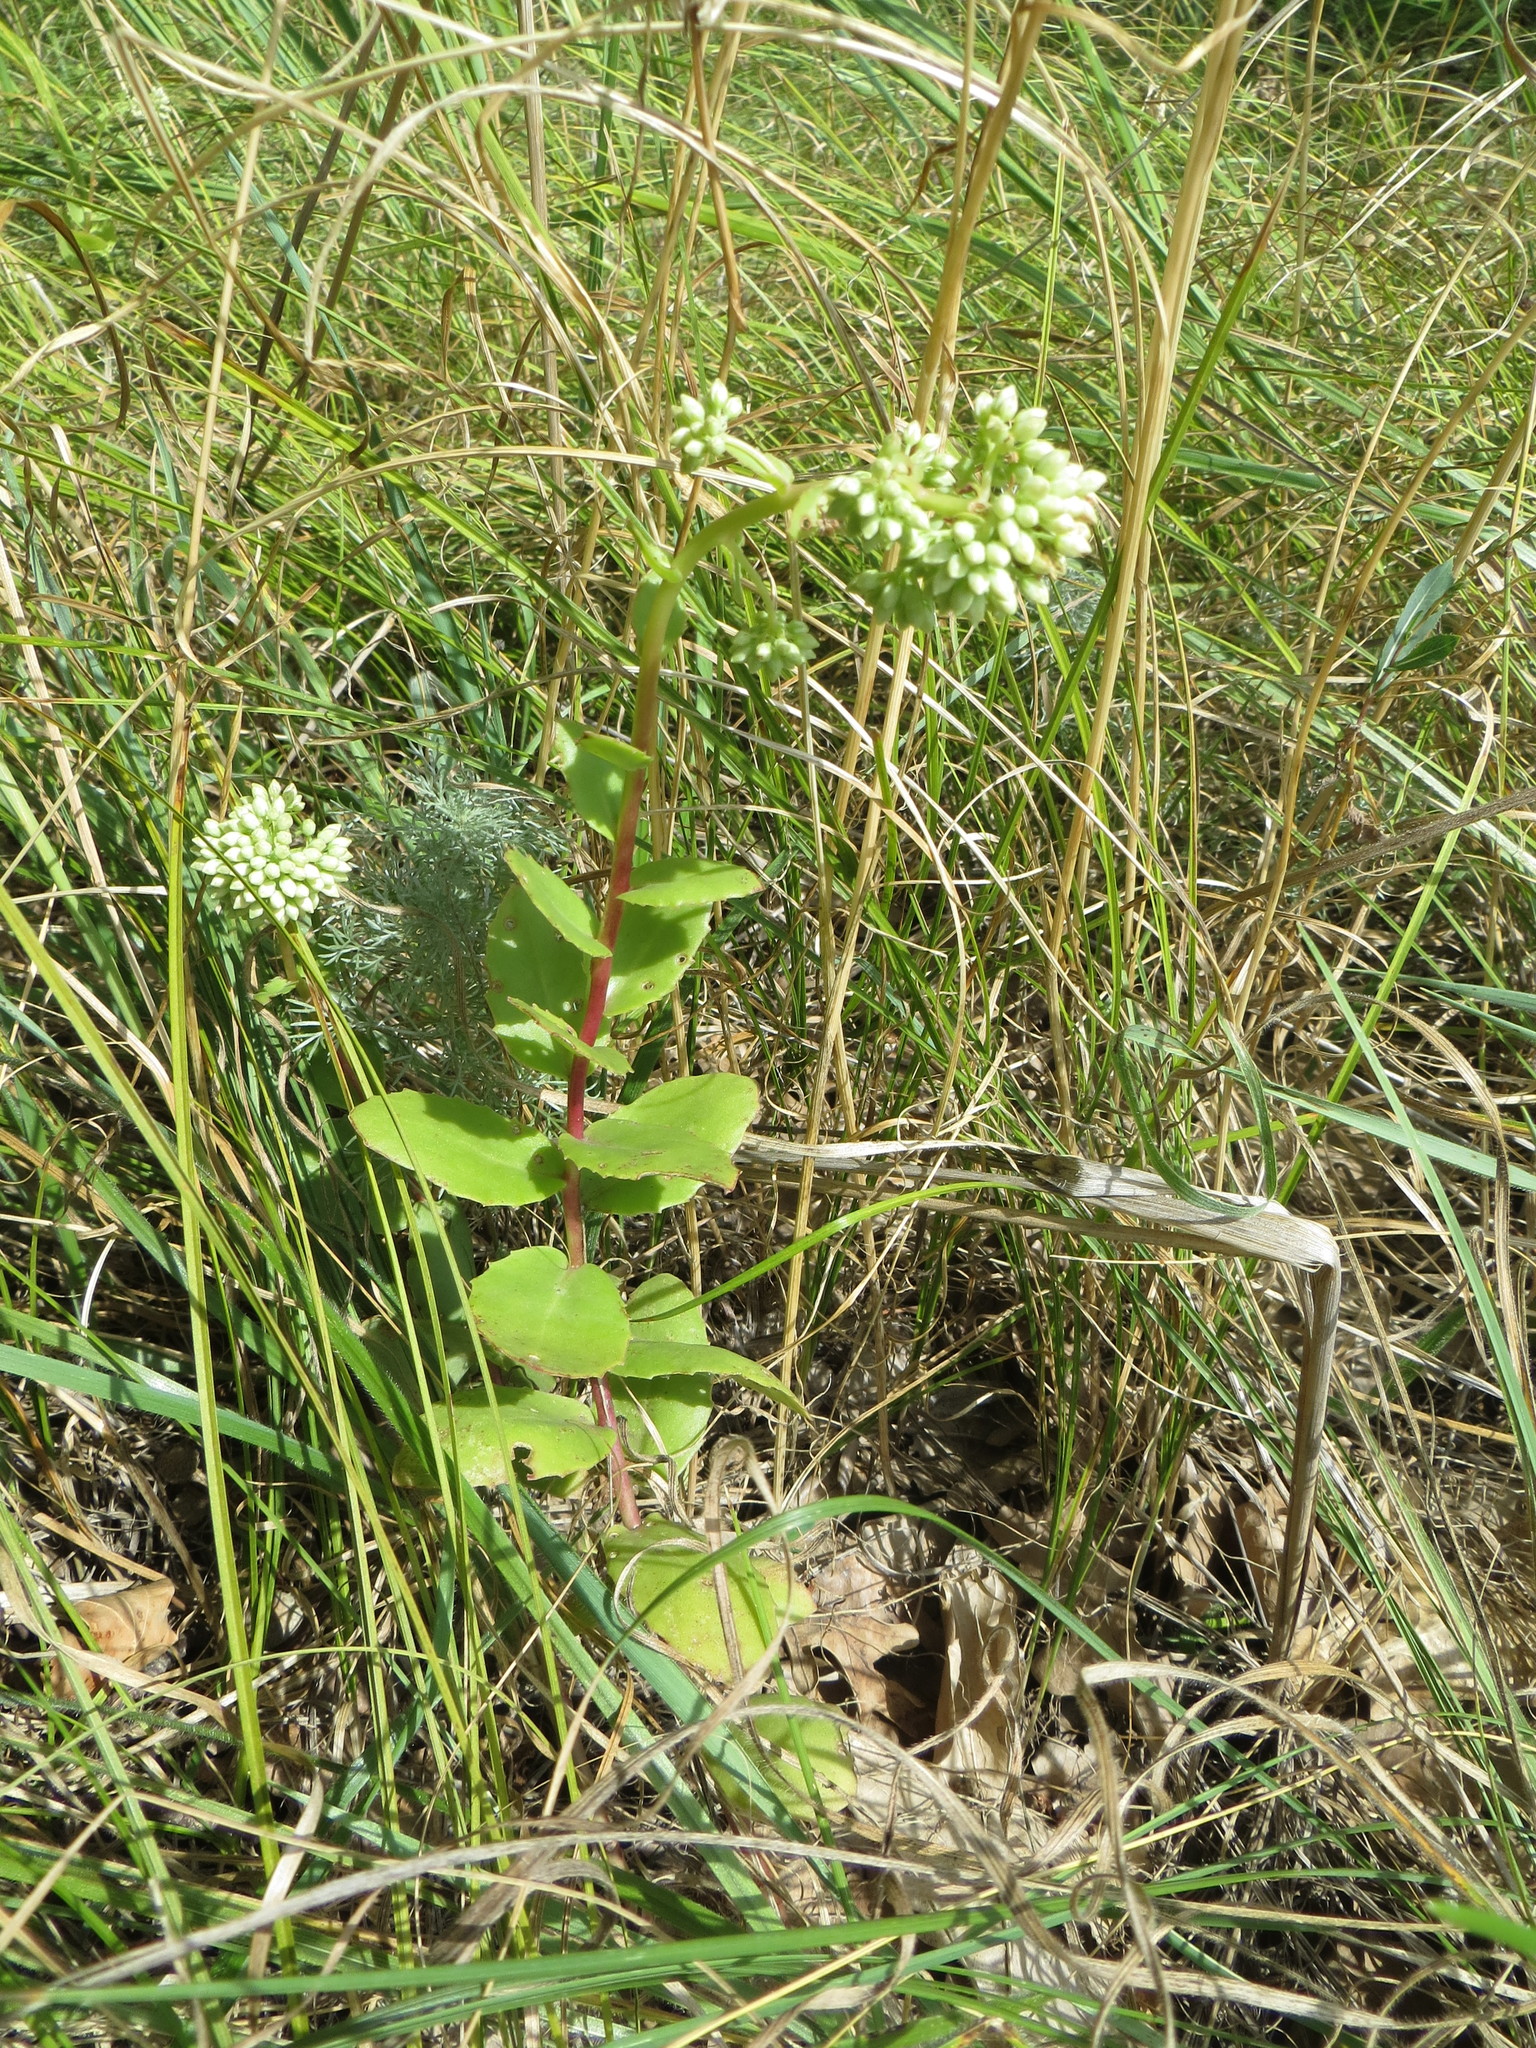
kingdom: Plantae
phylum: Tracheophyta
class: Magnoliopsida
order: Saxifragales
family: Crassulaceae
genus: Hylotelephium
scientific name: Hylotelephium maximum
